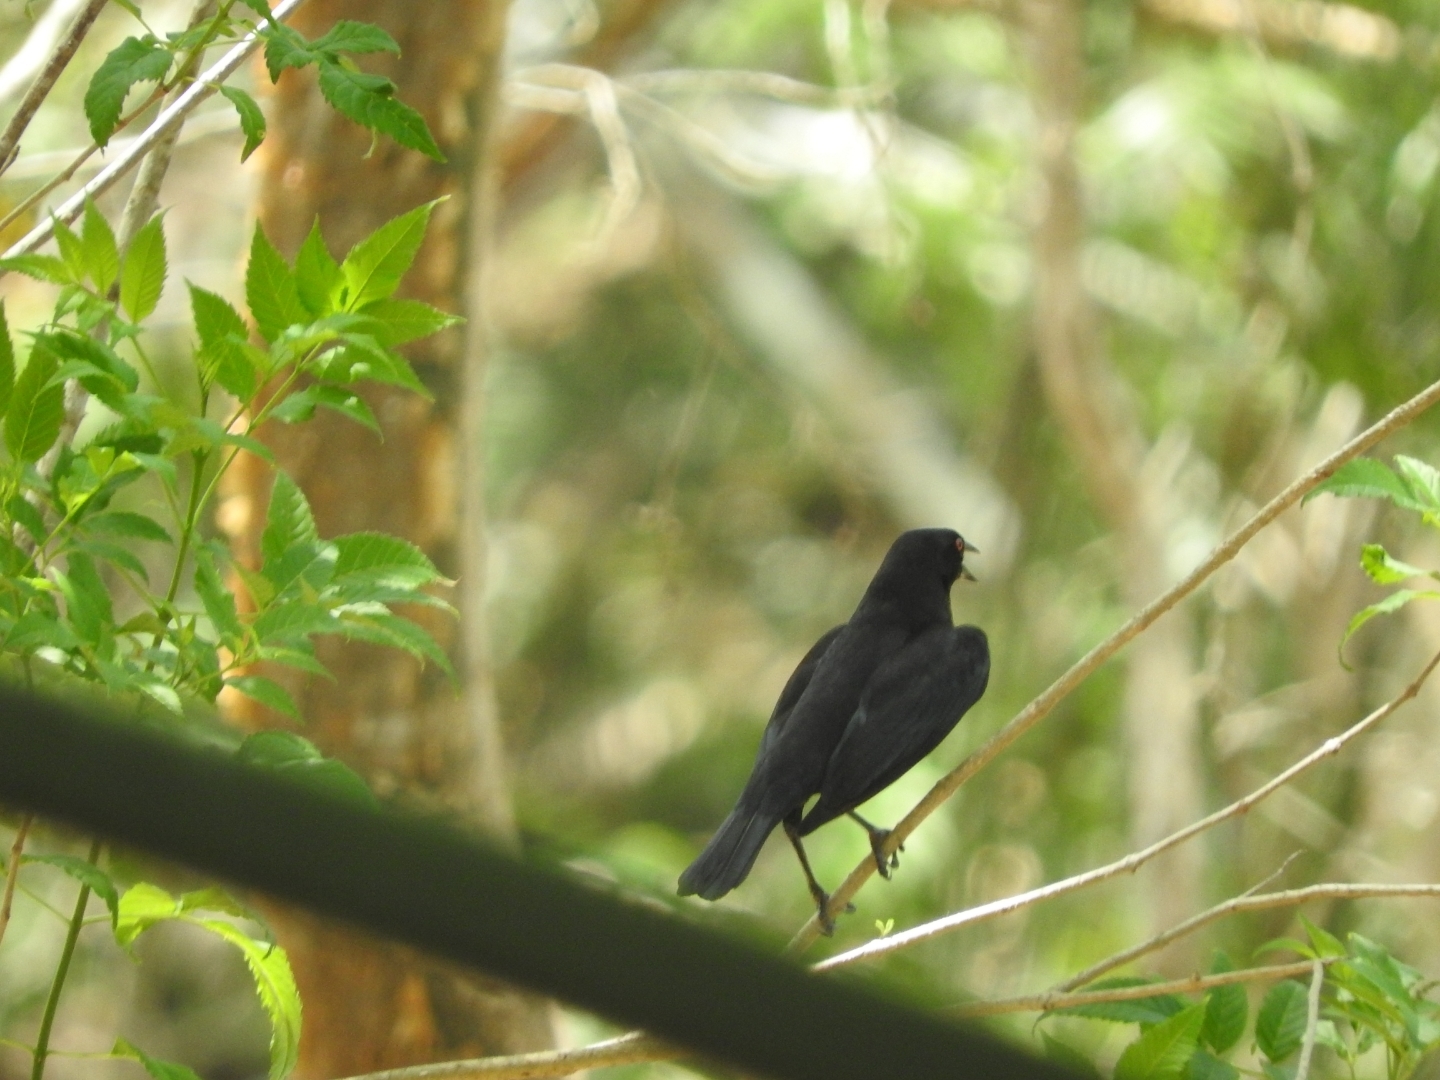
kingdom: Animalia
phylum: Chordata
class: Aves
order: Passeriformes
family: Icteridae
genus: Molothrus
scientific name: Molothrus aeneus
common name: Bronzed cowbird
